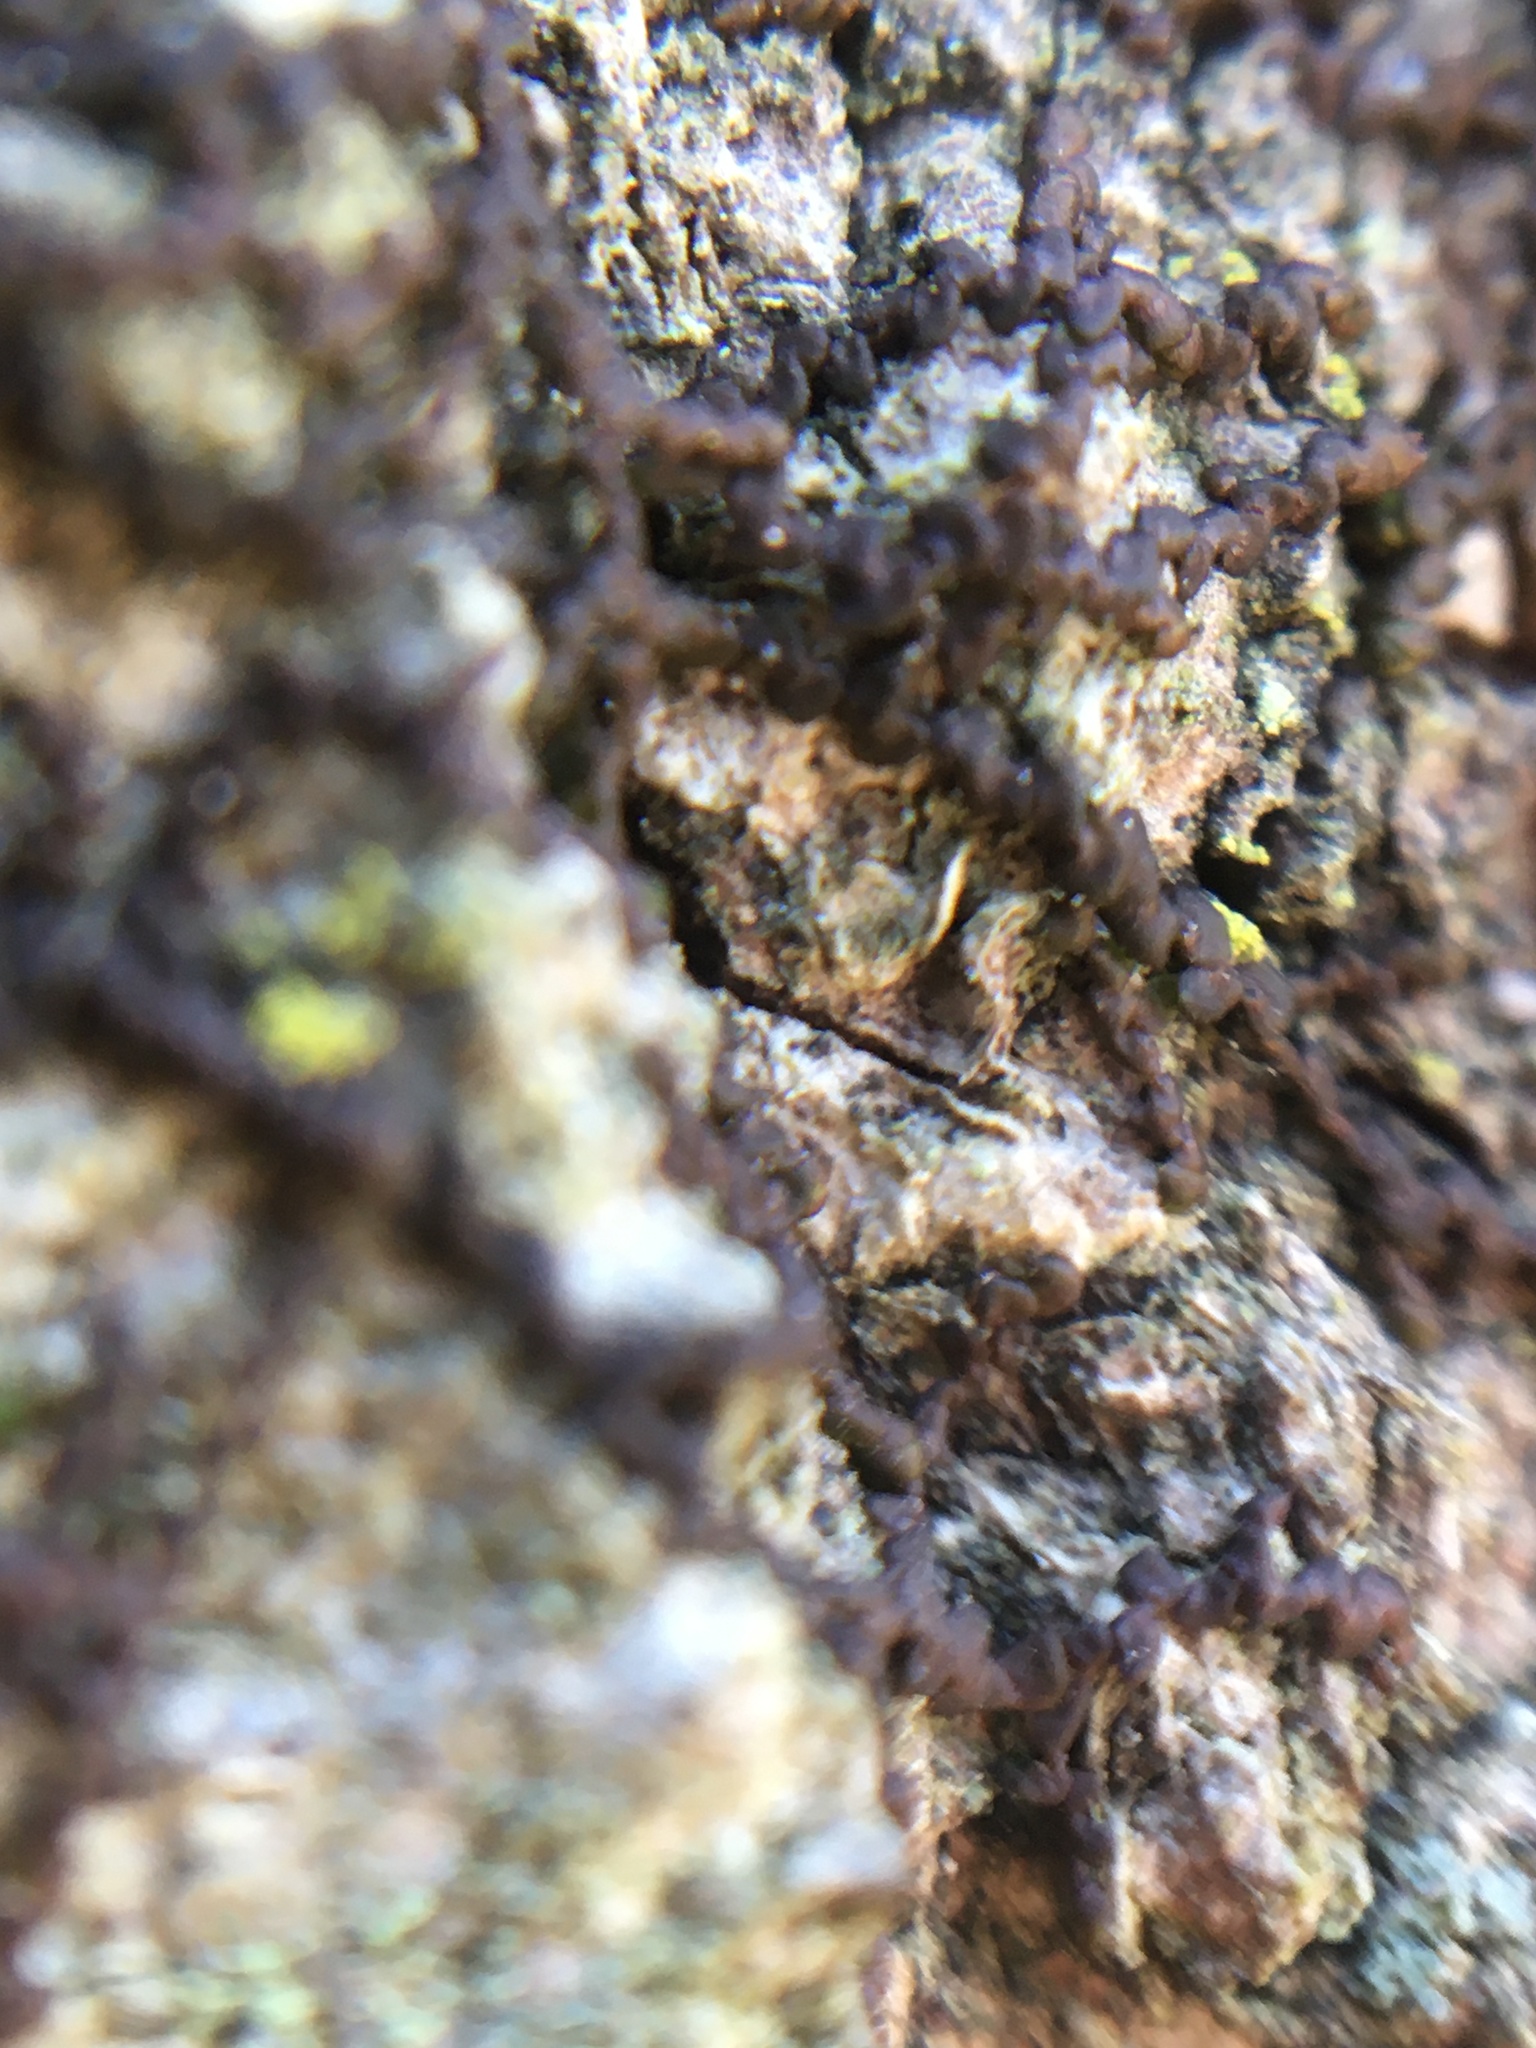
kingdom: Plantae
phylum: Marchantiophyta
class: Jungermanniopsida
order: Porellales
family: Frullaniaceae
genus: Frullania
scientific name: Frullania eboracensis
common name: New york scalewort
